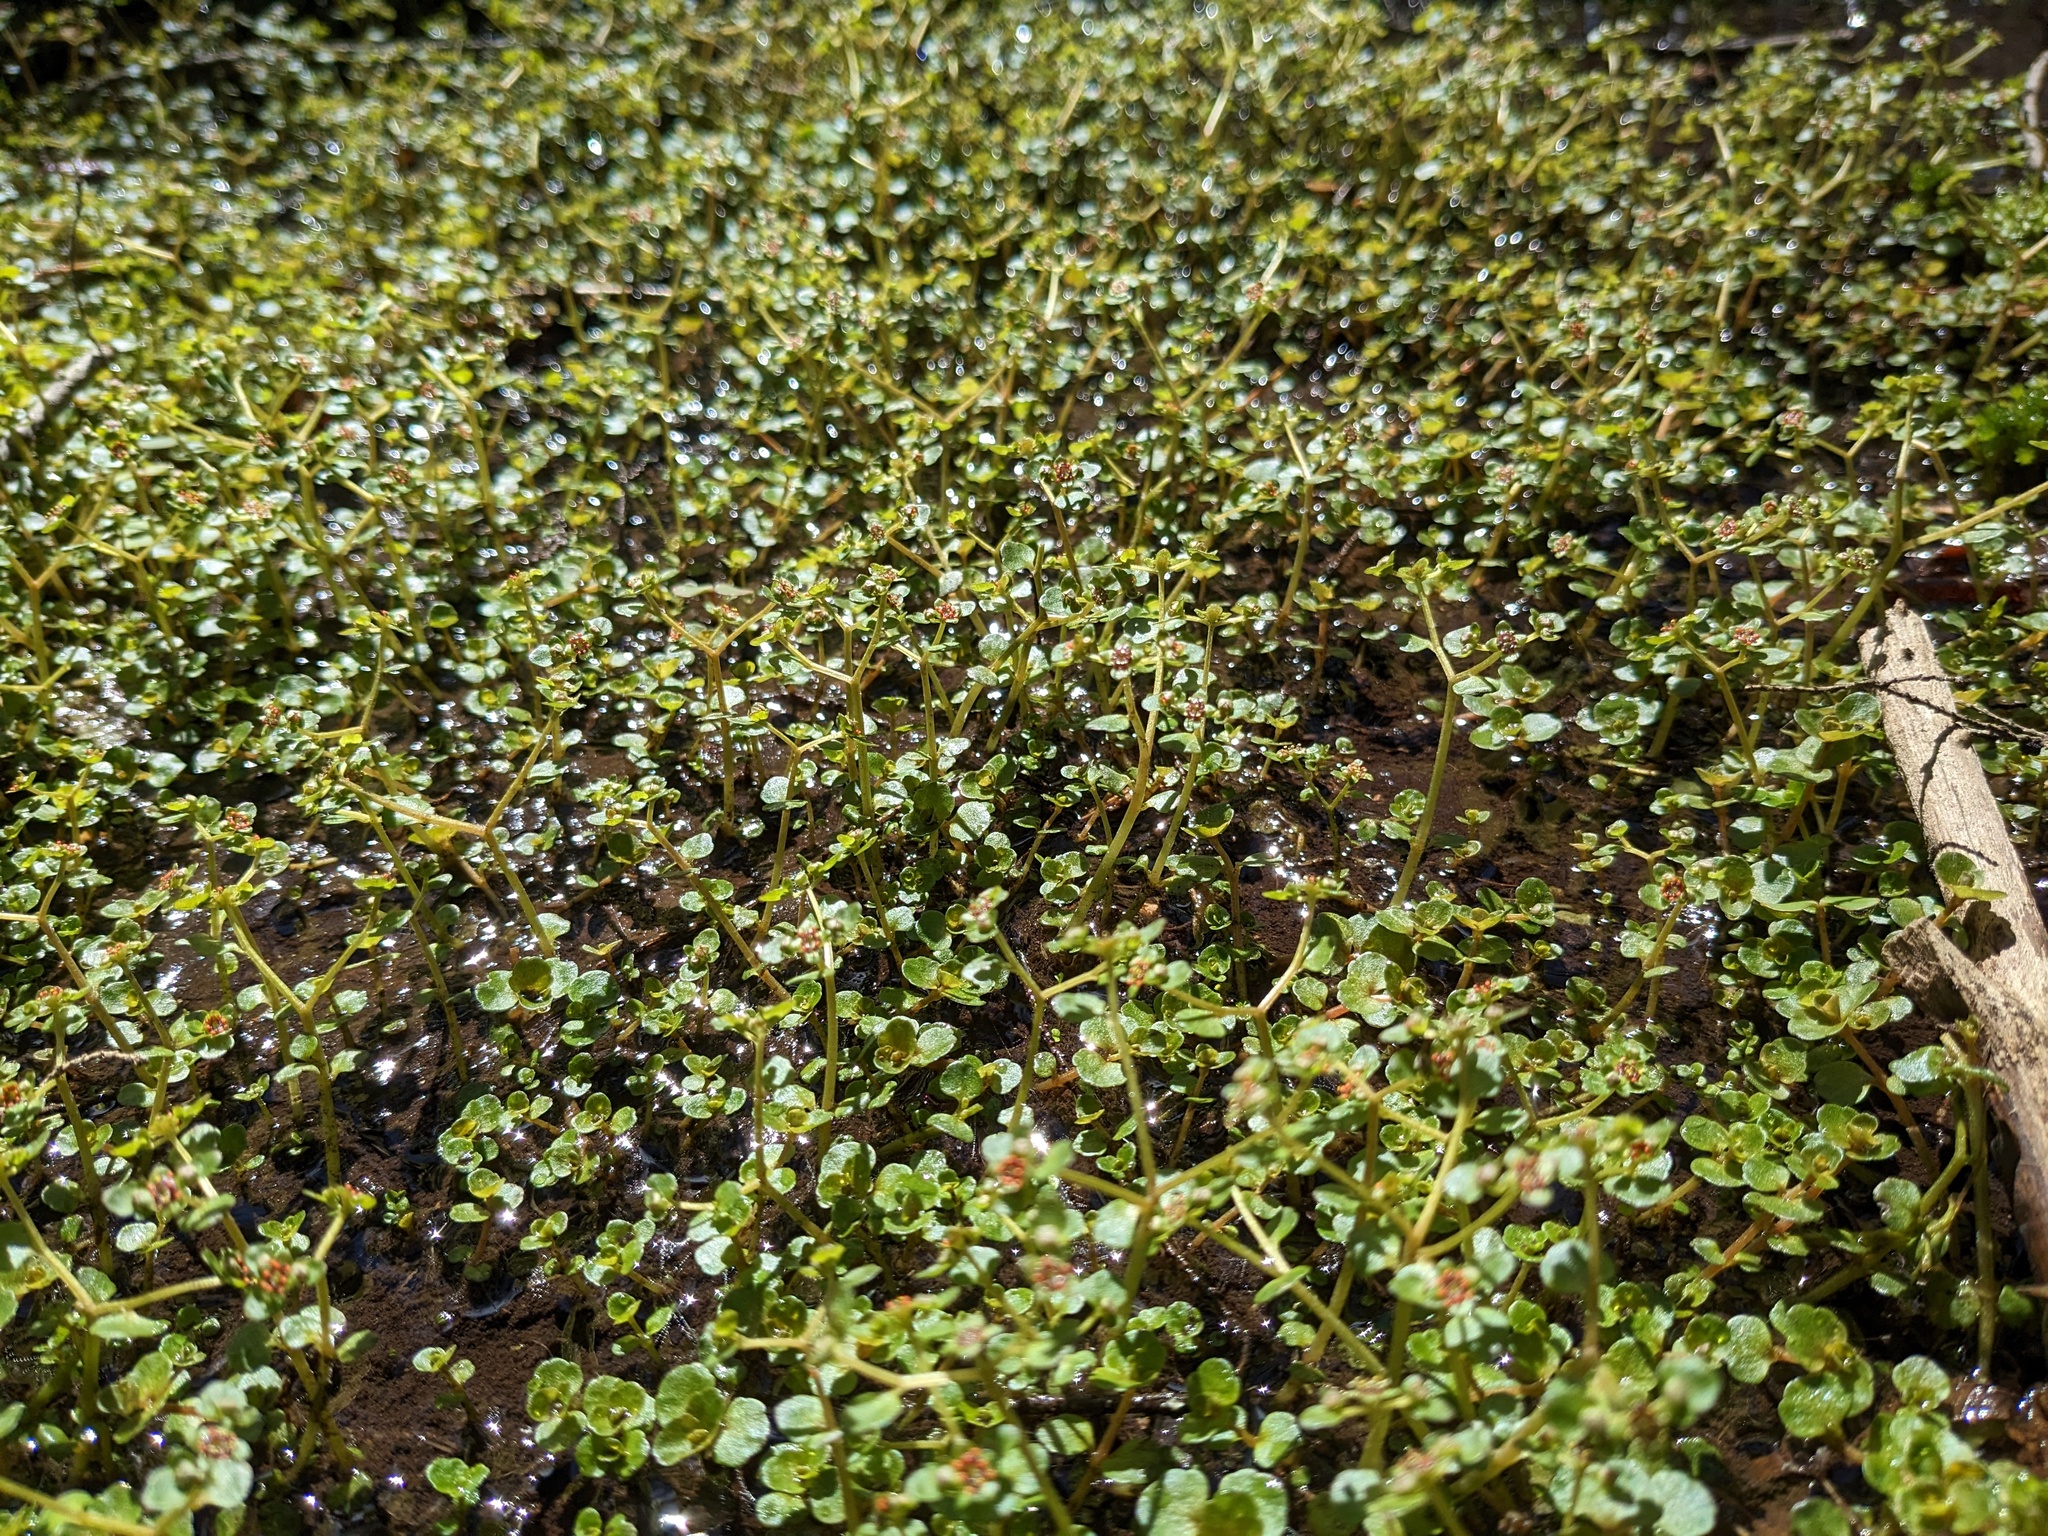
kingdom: Plantae
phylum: Tracheophyta
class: Magnoliopsida
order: Saxifragales
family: Saxifragaceae
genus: Chrysosplenium
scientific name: Chrysosplenium americanum
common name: American golden-saxifrage
